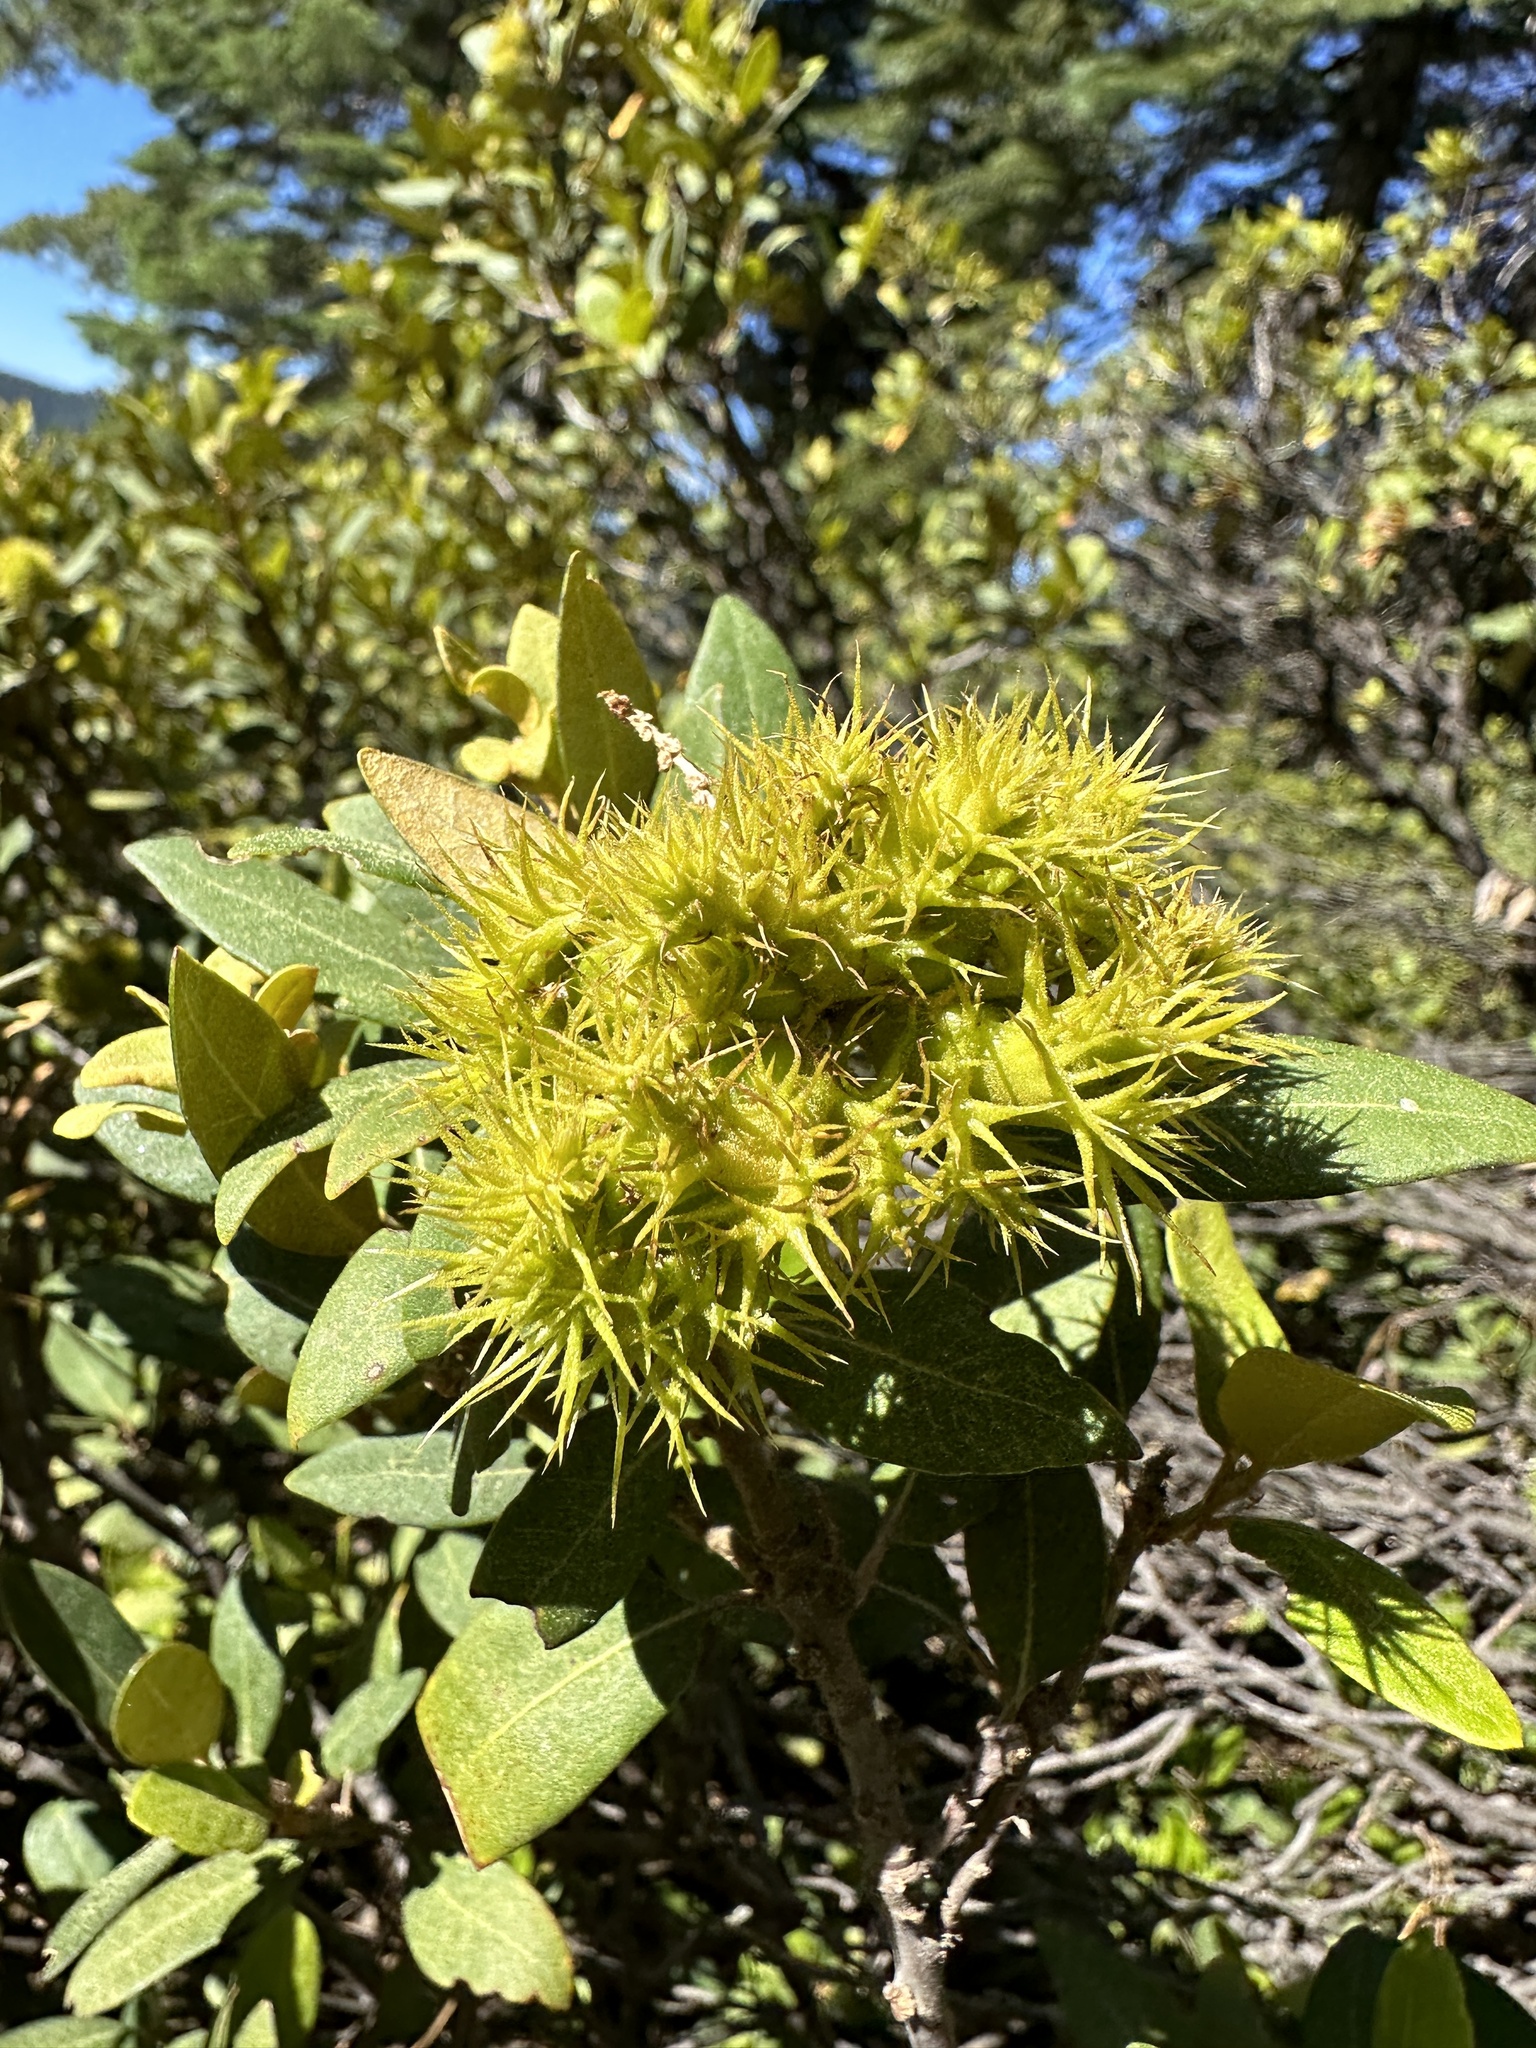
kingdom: Plantae
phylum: Tracheophyta
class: Magnoliopsida
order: Fagales
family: Fagaceae
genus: Chrysolepis
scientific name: Chrysolepis sempervirens
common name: Bush chinquapin
